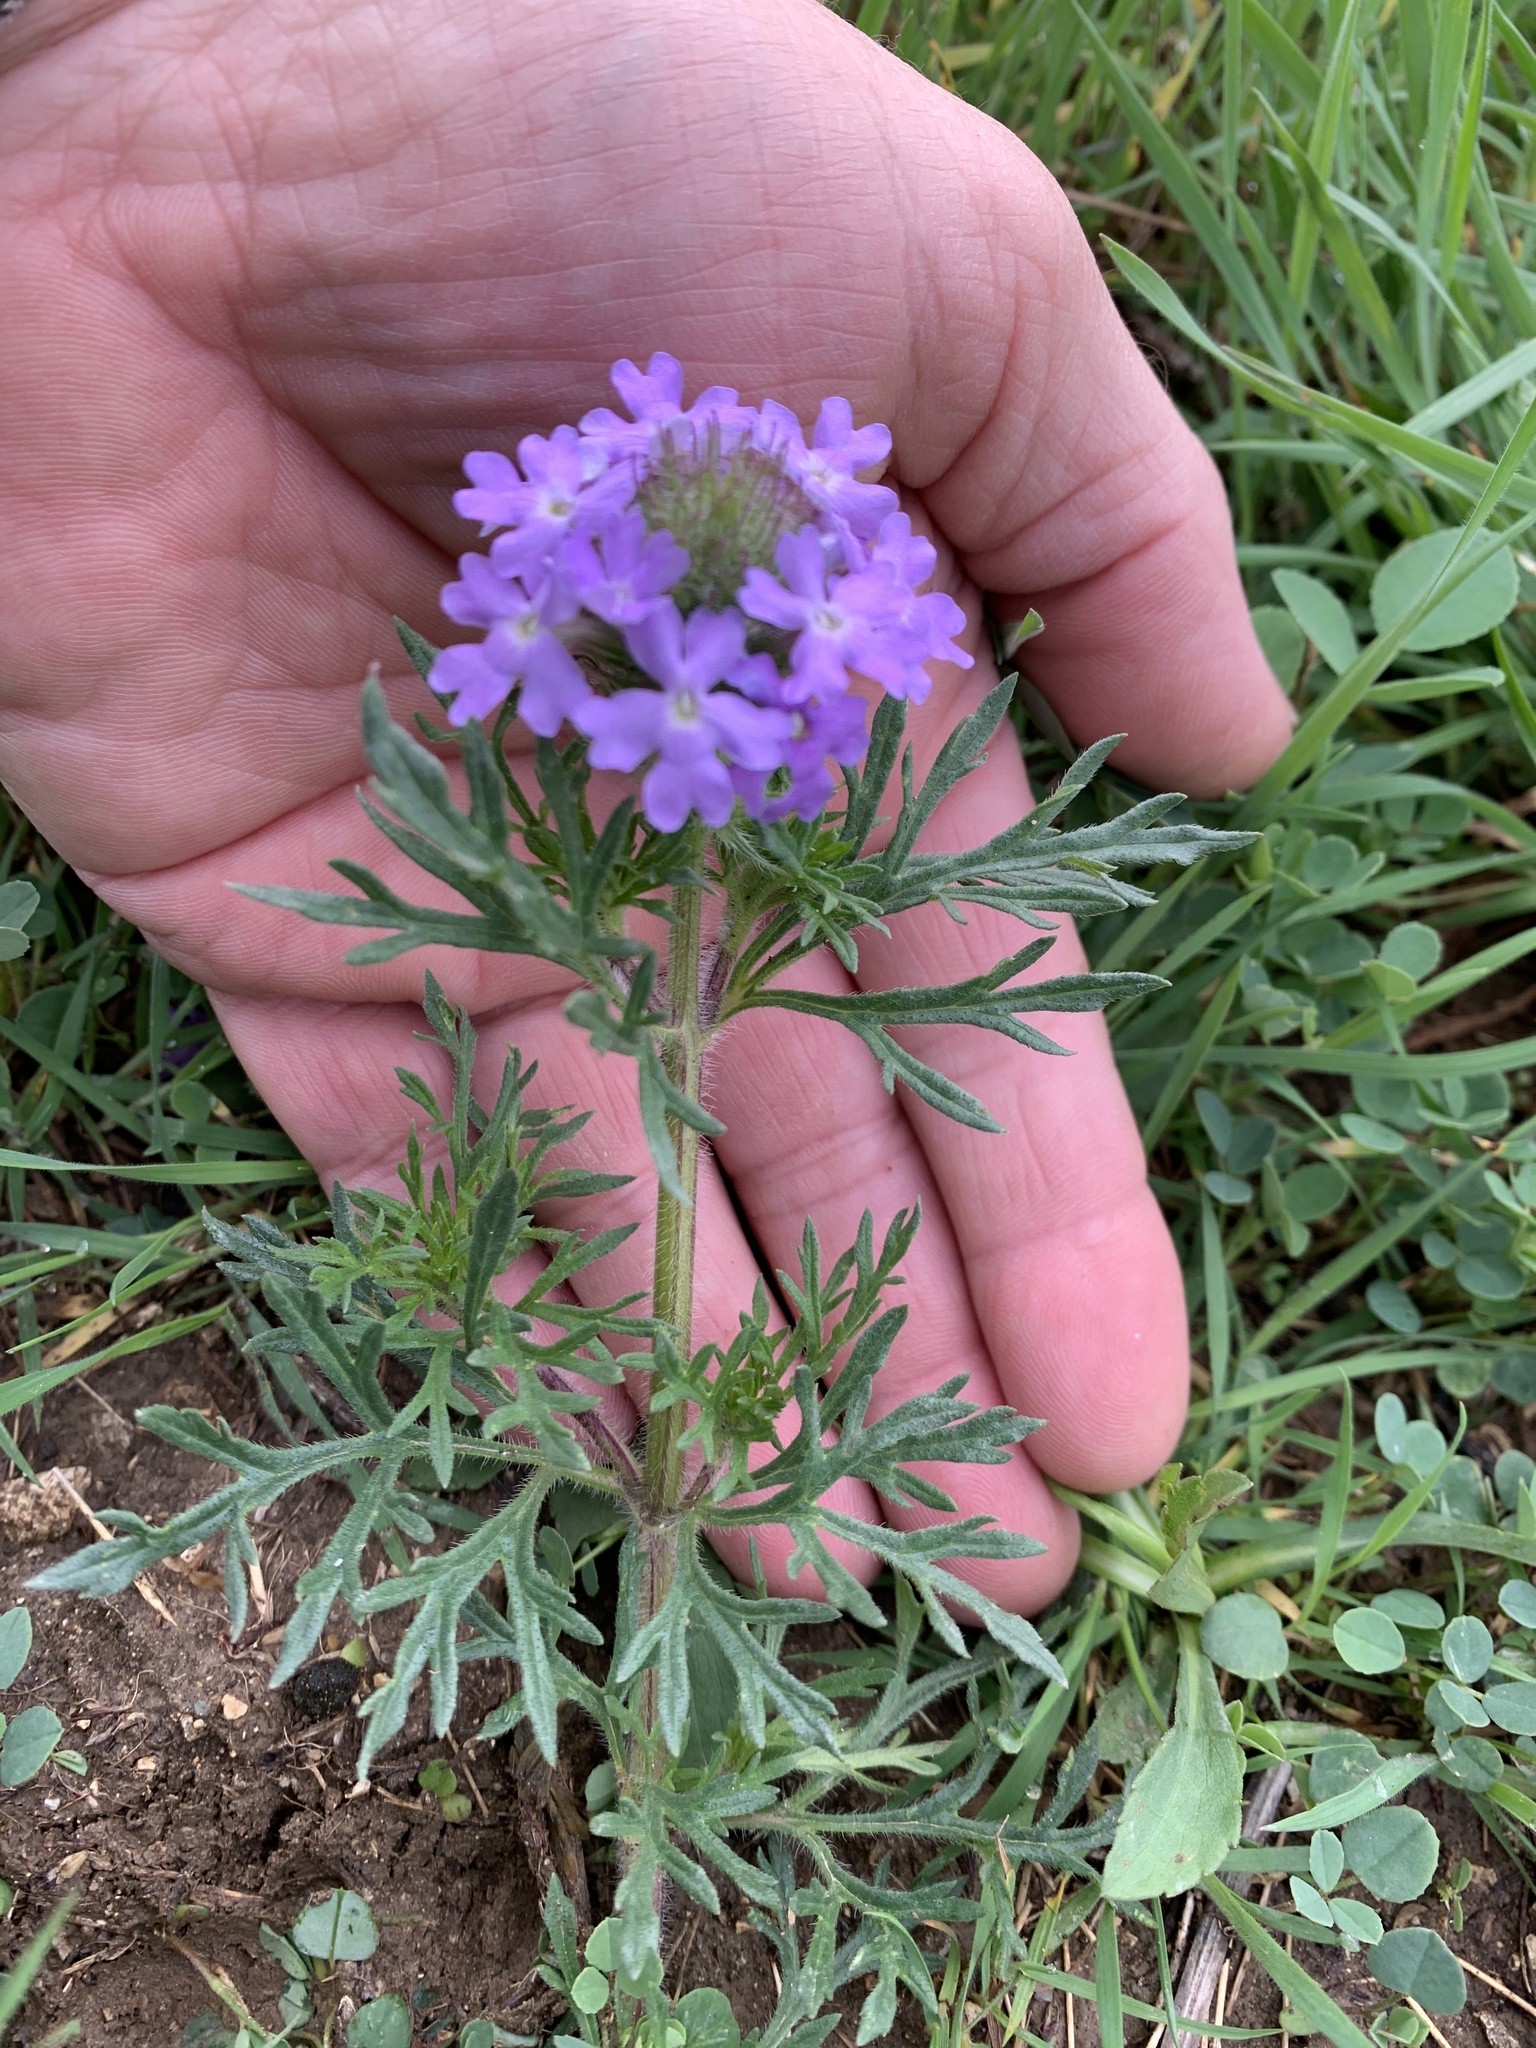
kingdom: Plantae
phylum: Tracheophyta
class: Magnoliopsida
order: Lamiales
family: Verbenaceae
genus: Verbena
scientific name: Verbena bipinnatifida
